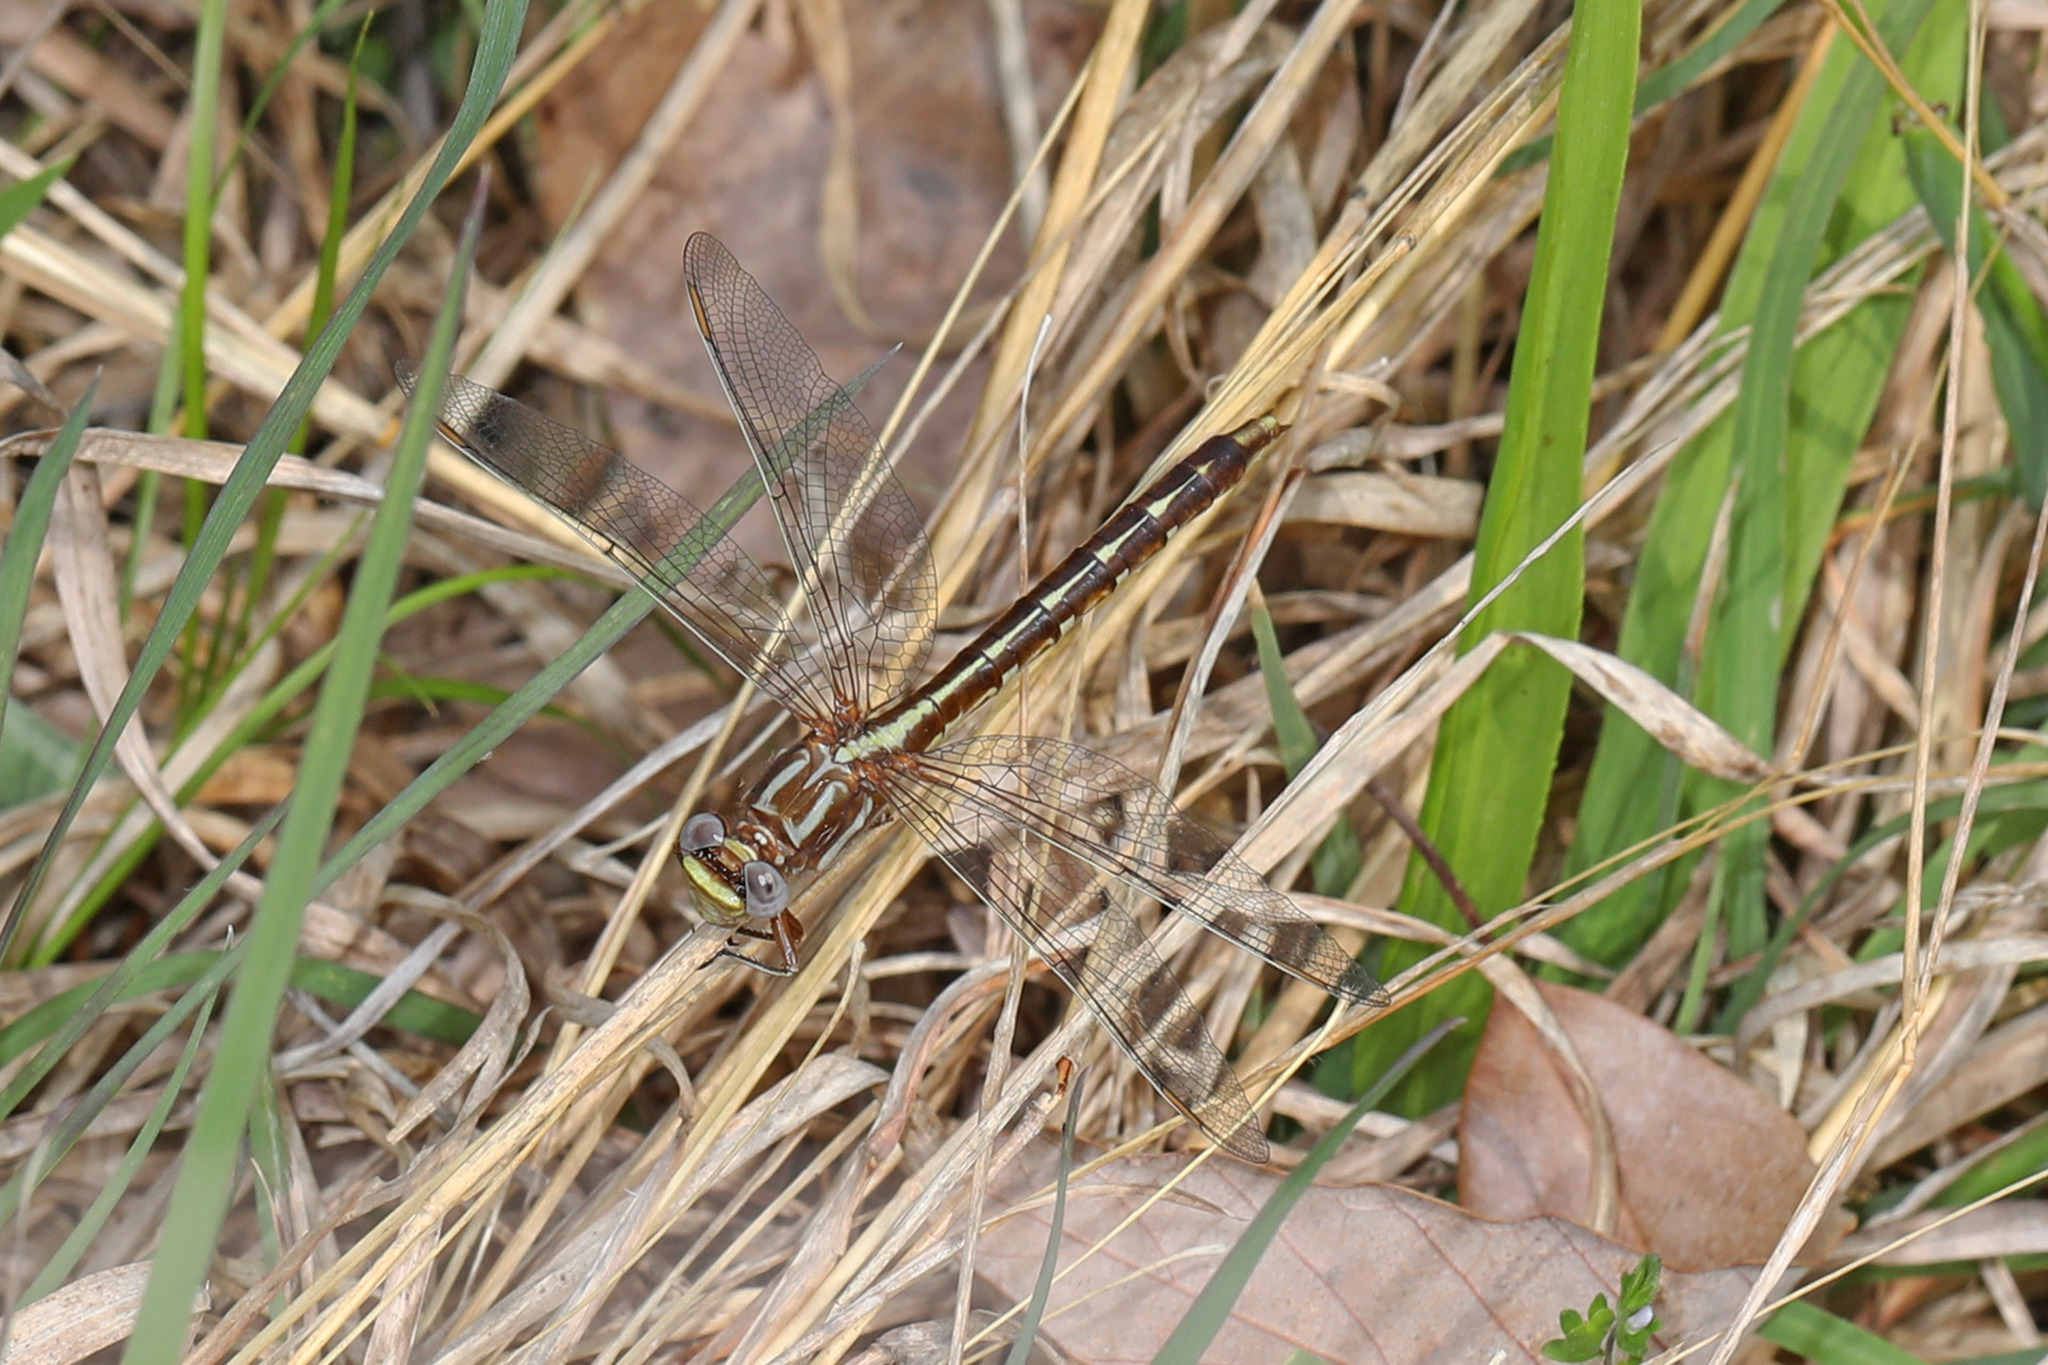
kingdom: Animalia
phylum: Arthropoda
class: Insecta
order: Odonata
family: Gomphidae
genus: Phanogomphus
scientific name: Phanogomphus lividus
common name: Ashy clubtail
